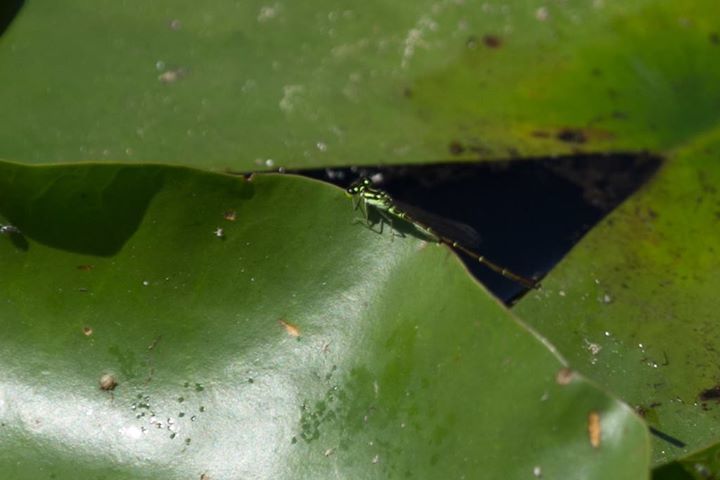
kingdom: Animalia
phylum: Arthropoda
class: Insecta
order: Odonata
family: Coenagrionidae
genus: Ischnura
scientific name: Ischnura posita
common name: Fragile forktail
